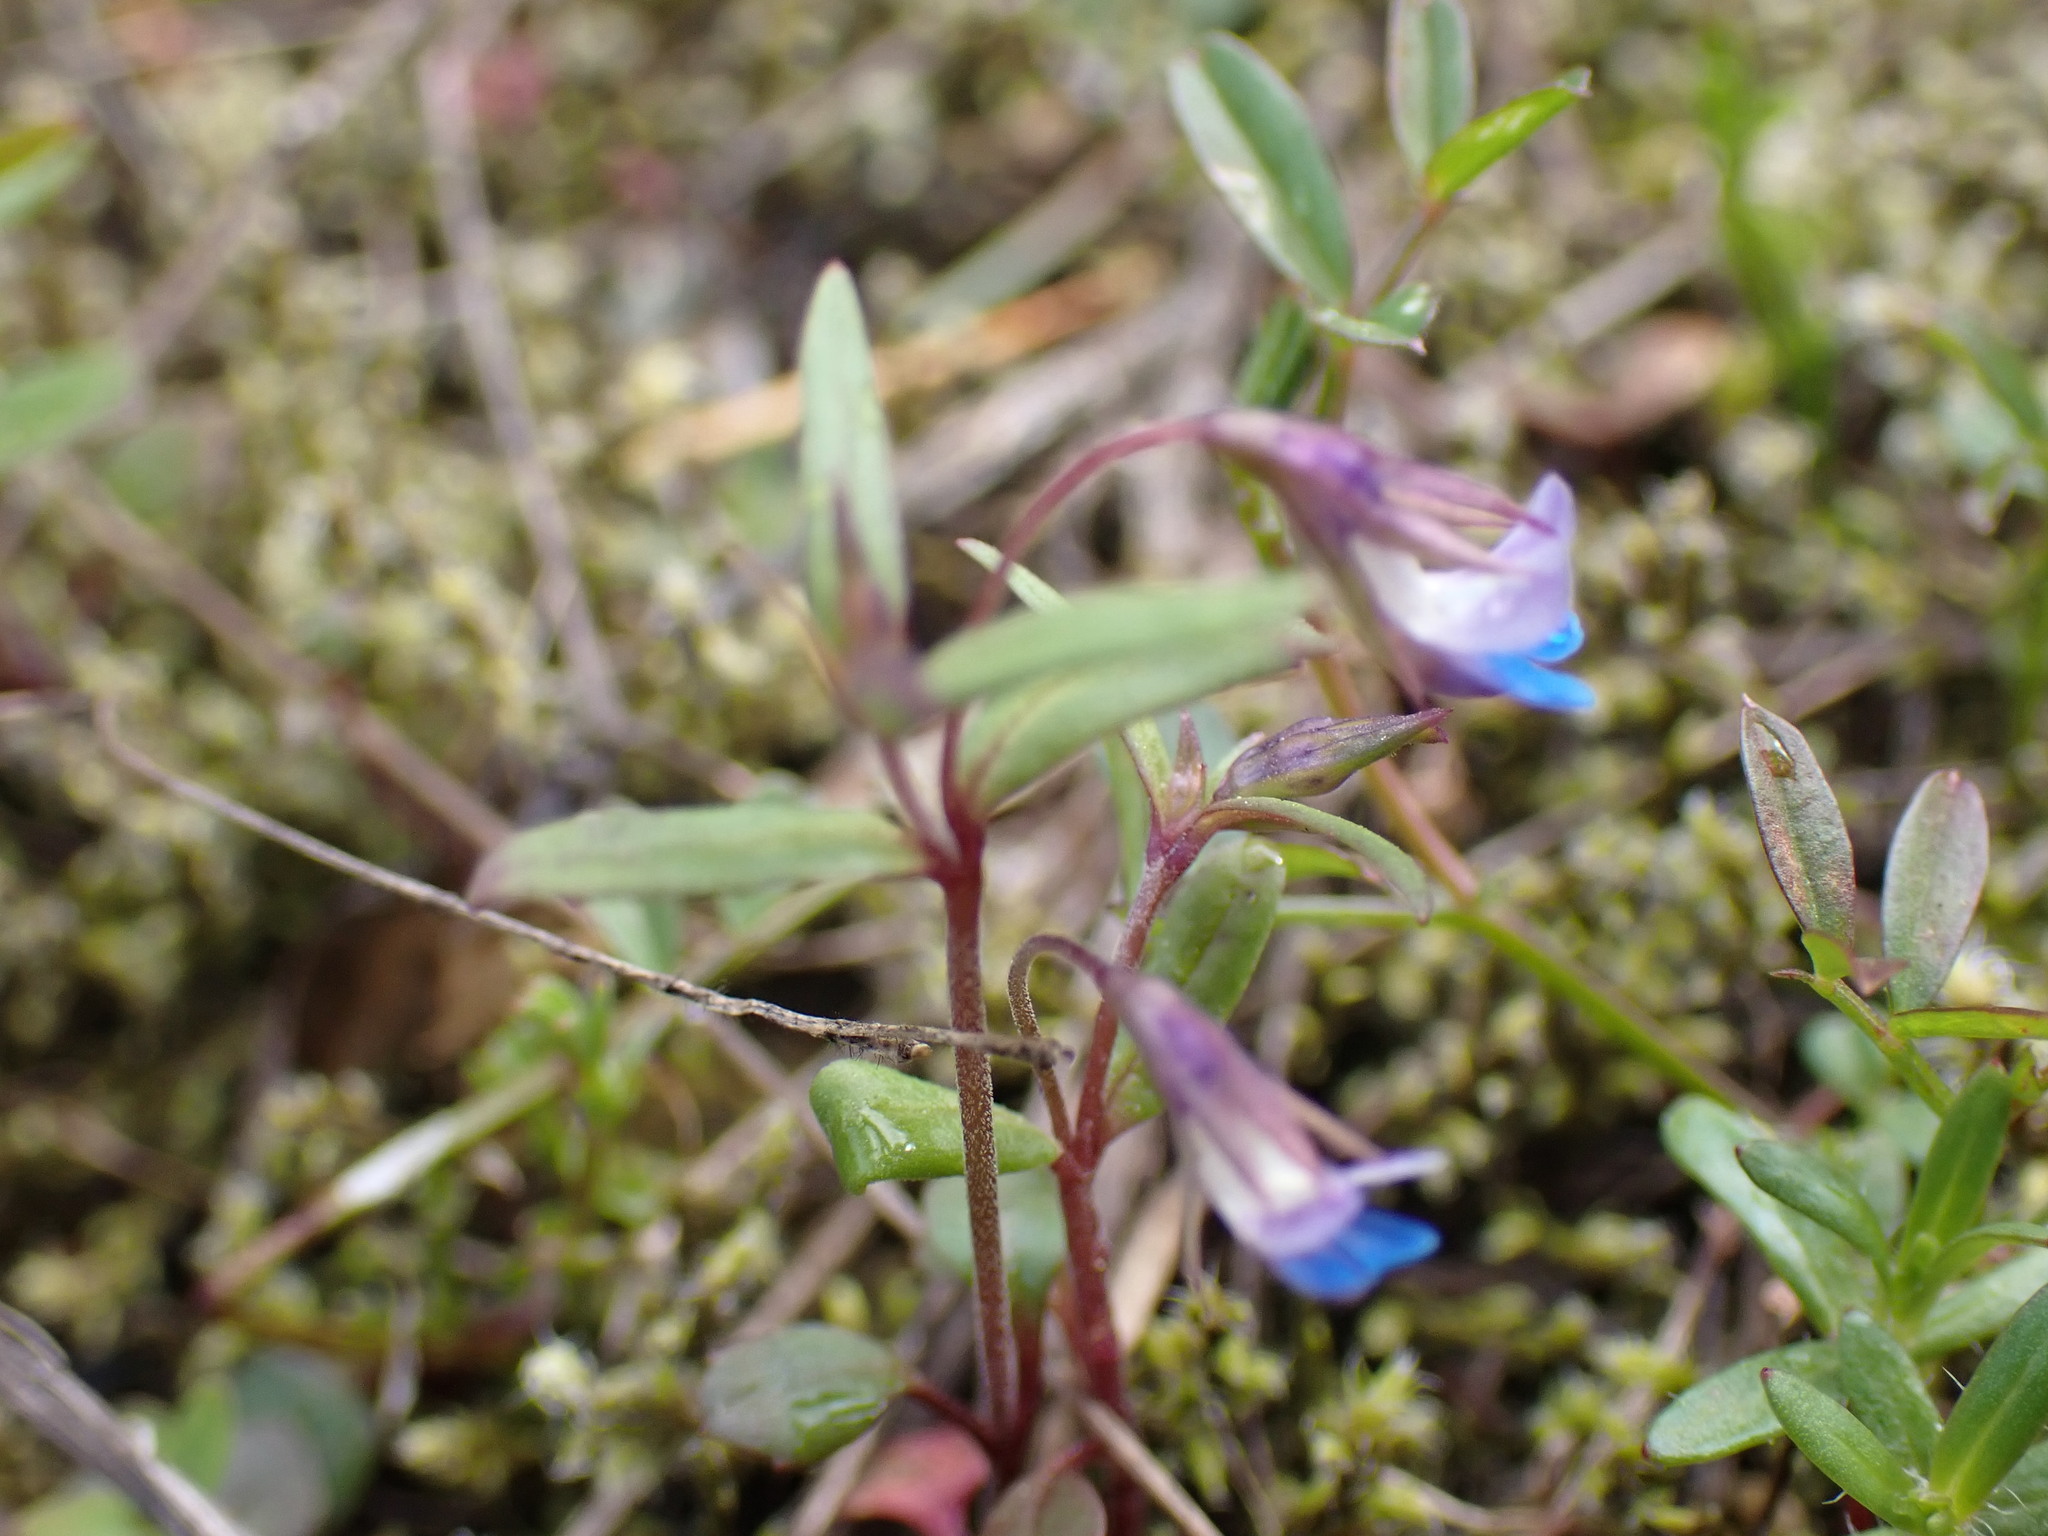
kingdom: Plantae
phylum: Tracheophyta
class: Magnoliopsida
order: Lamiales
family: Plantaginaceae
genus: Collinsia
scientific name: Collinsia parviflora
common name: Blue-lips
